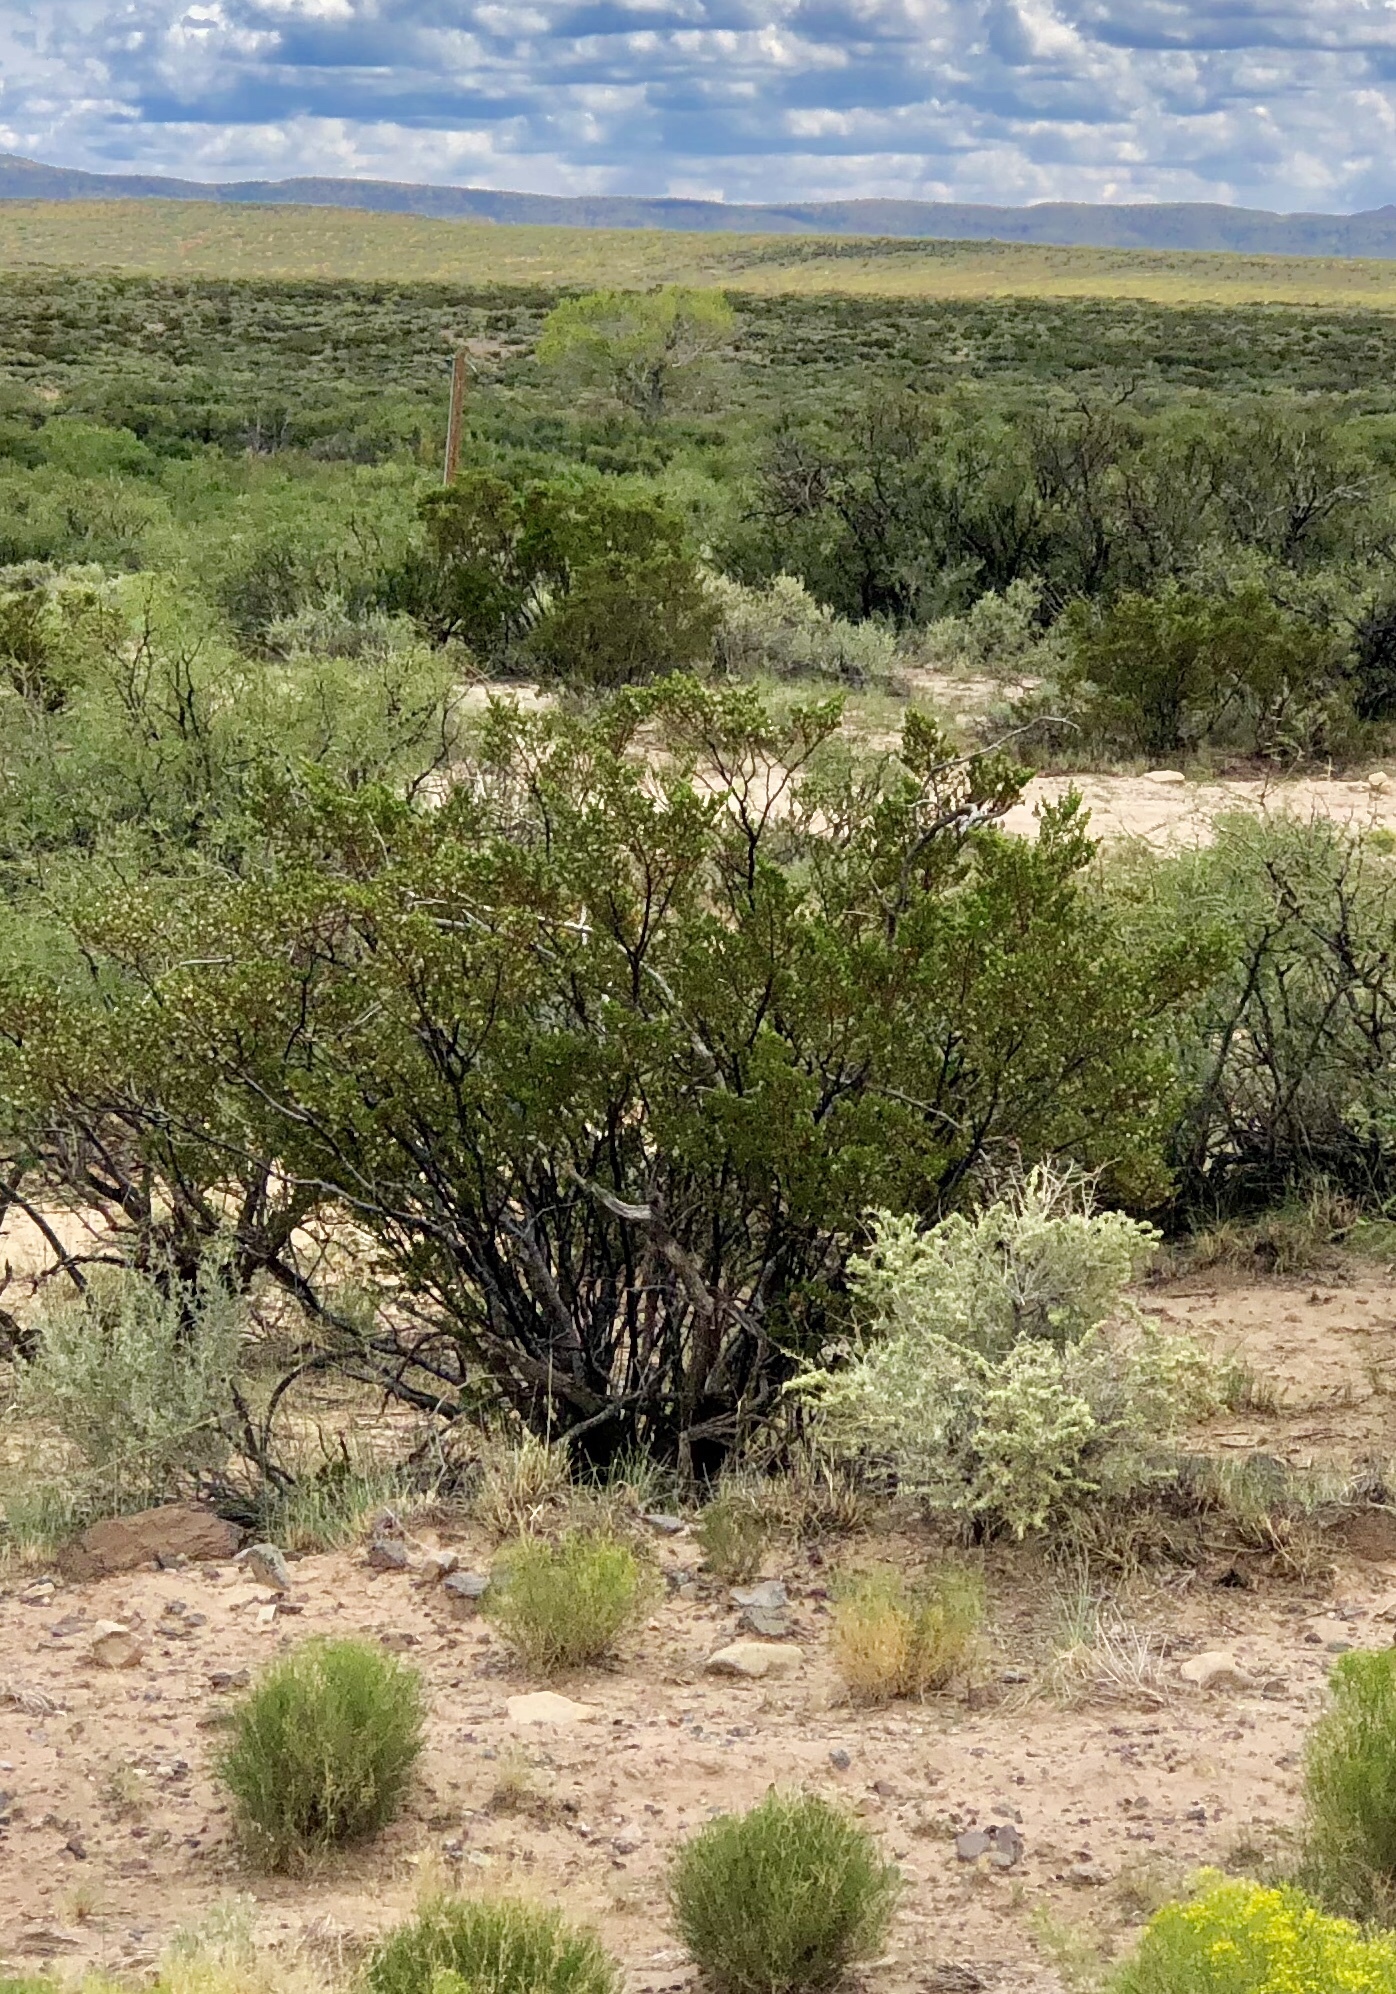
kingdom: Plantae
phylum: Tracheophyta
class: Magnoliopsida
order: Zygophyllales
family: Zygophyllaceae
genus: Larrea
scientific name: Larrea tridentata
